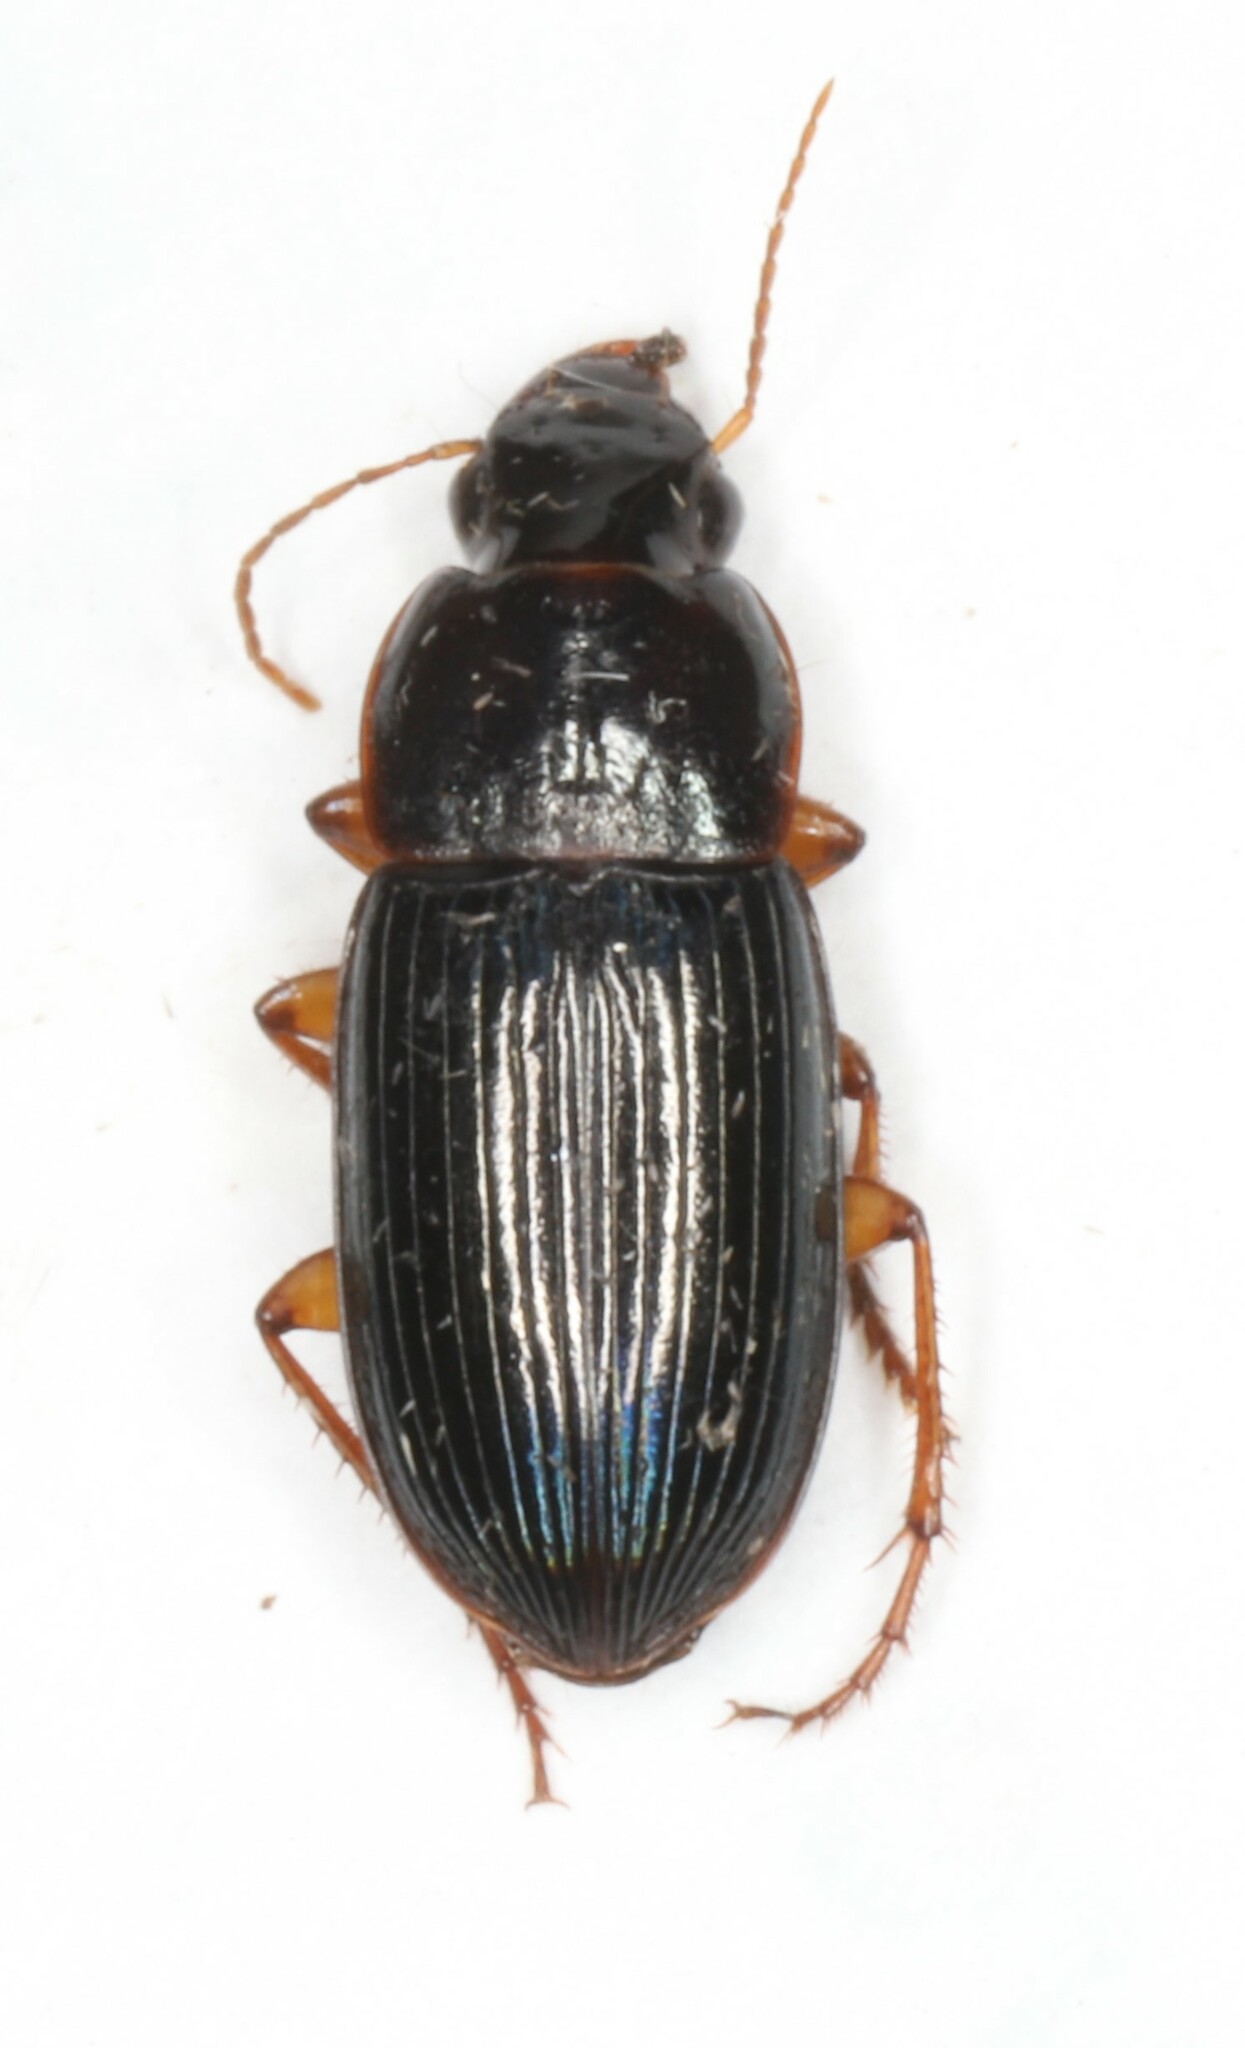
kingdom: Animalia
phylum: Arthropoda
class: Insecta
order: Coleoptera
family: Carabidae
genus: Selenophorus
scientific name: Selenophorus opalinus
